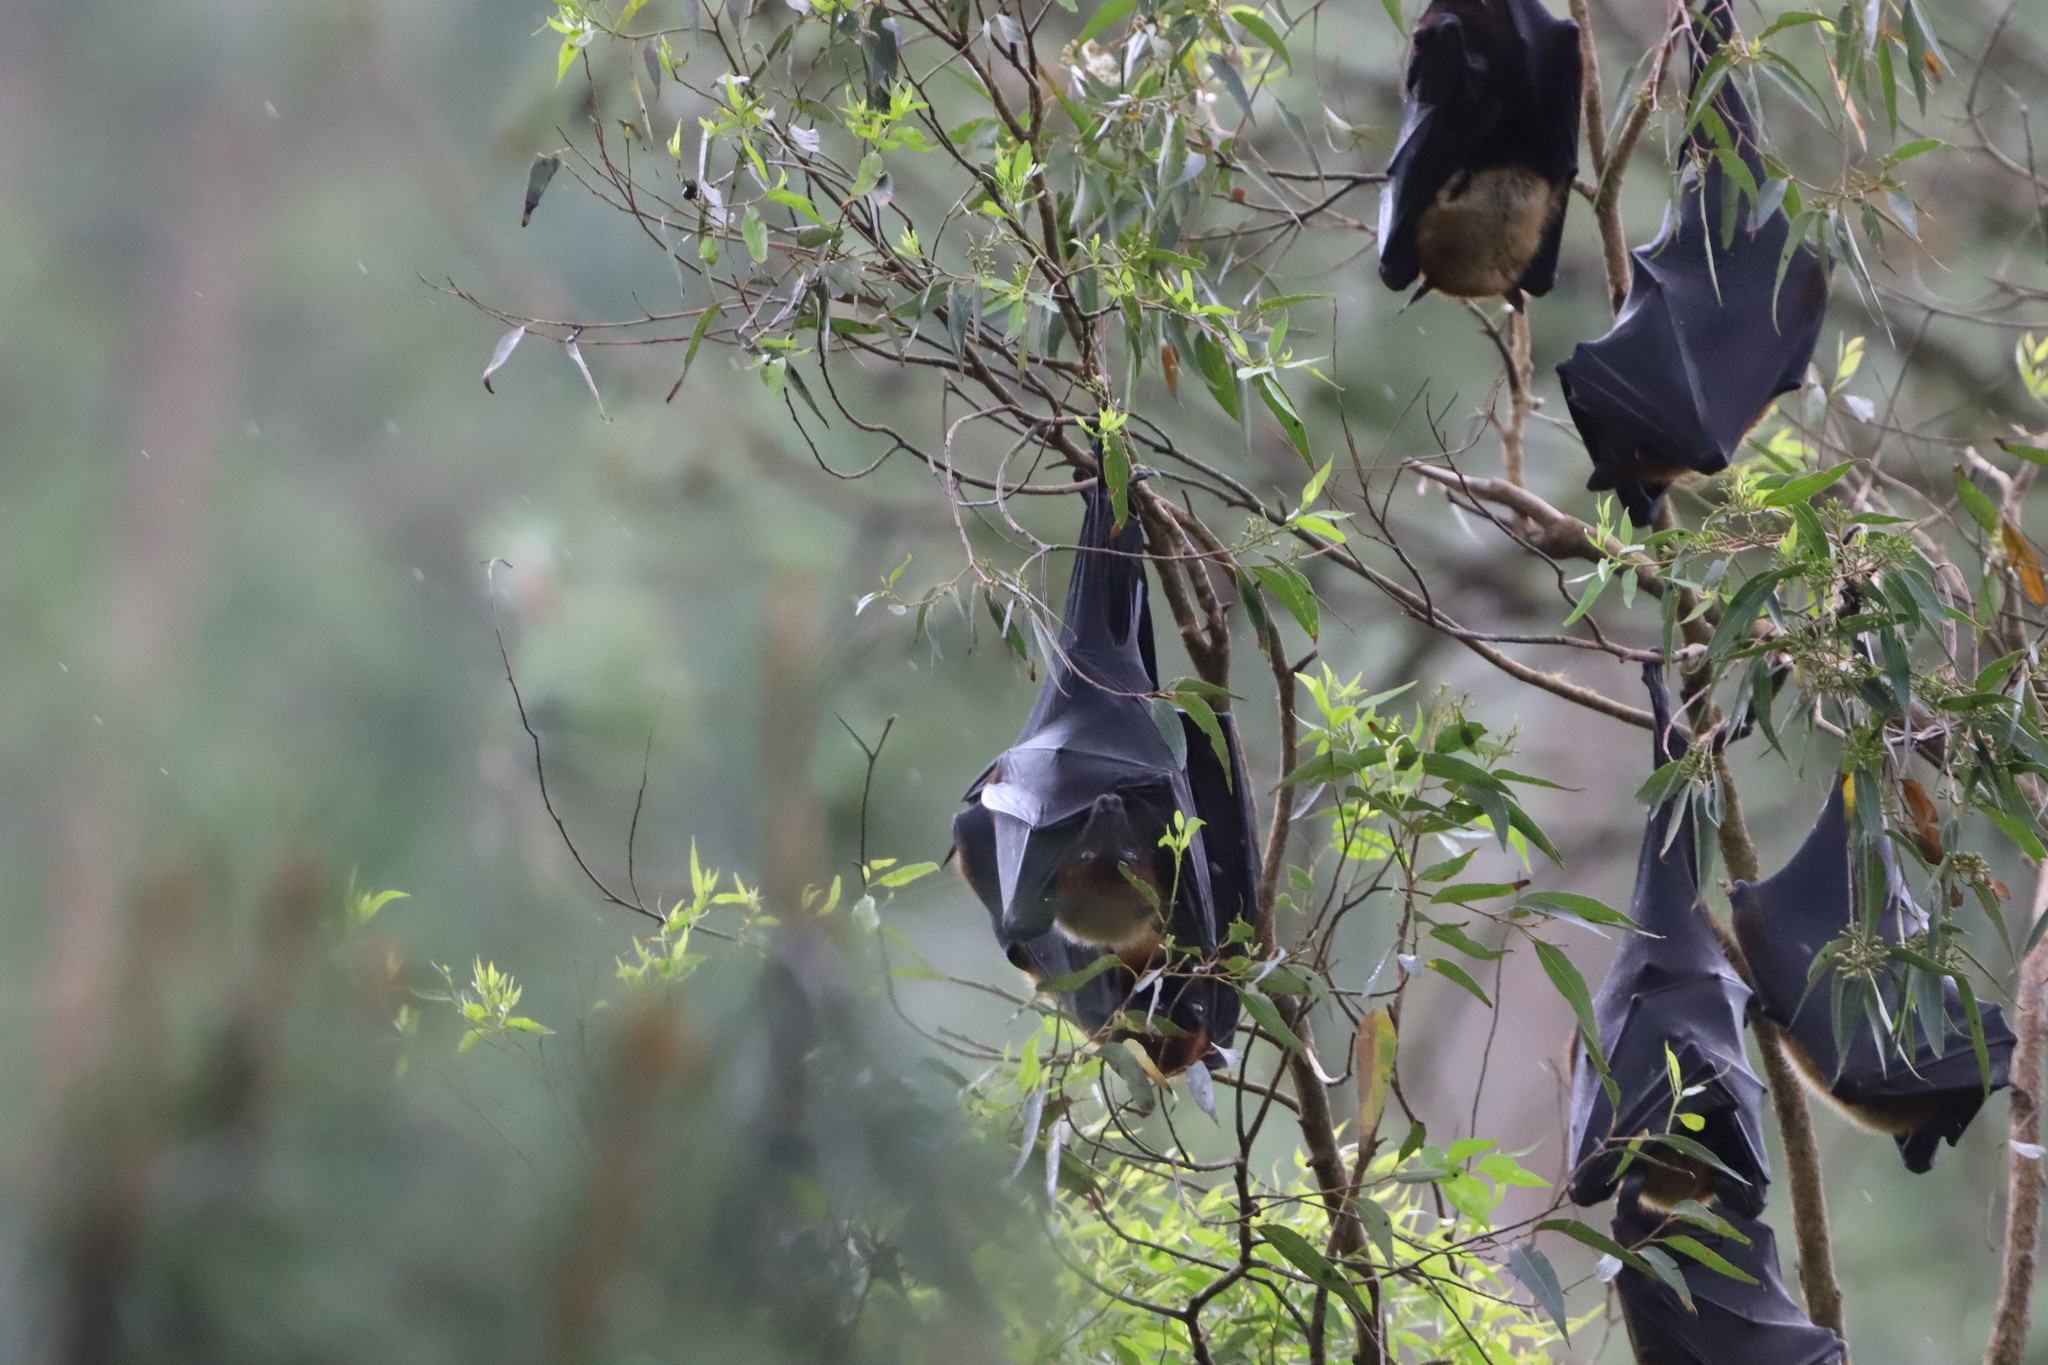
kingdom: Animalia
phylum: Chordata
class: Mammalia
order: Chiroptera
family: Pteropodidae
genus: Pteropus
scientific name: Pteropus vampyrus
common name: Large flying fox
